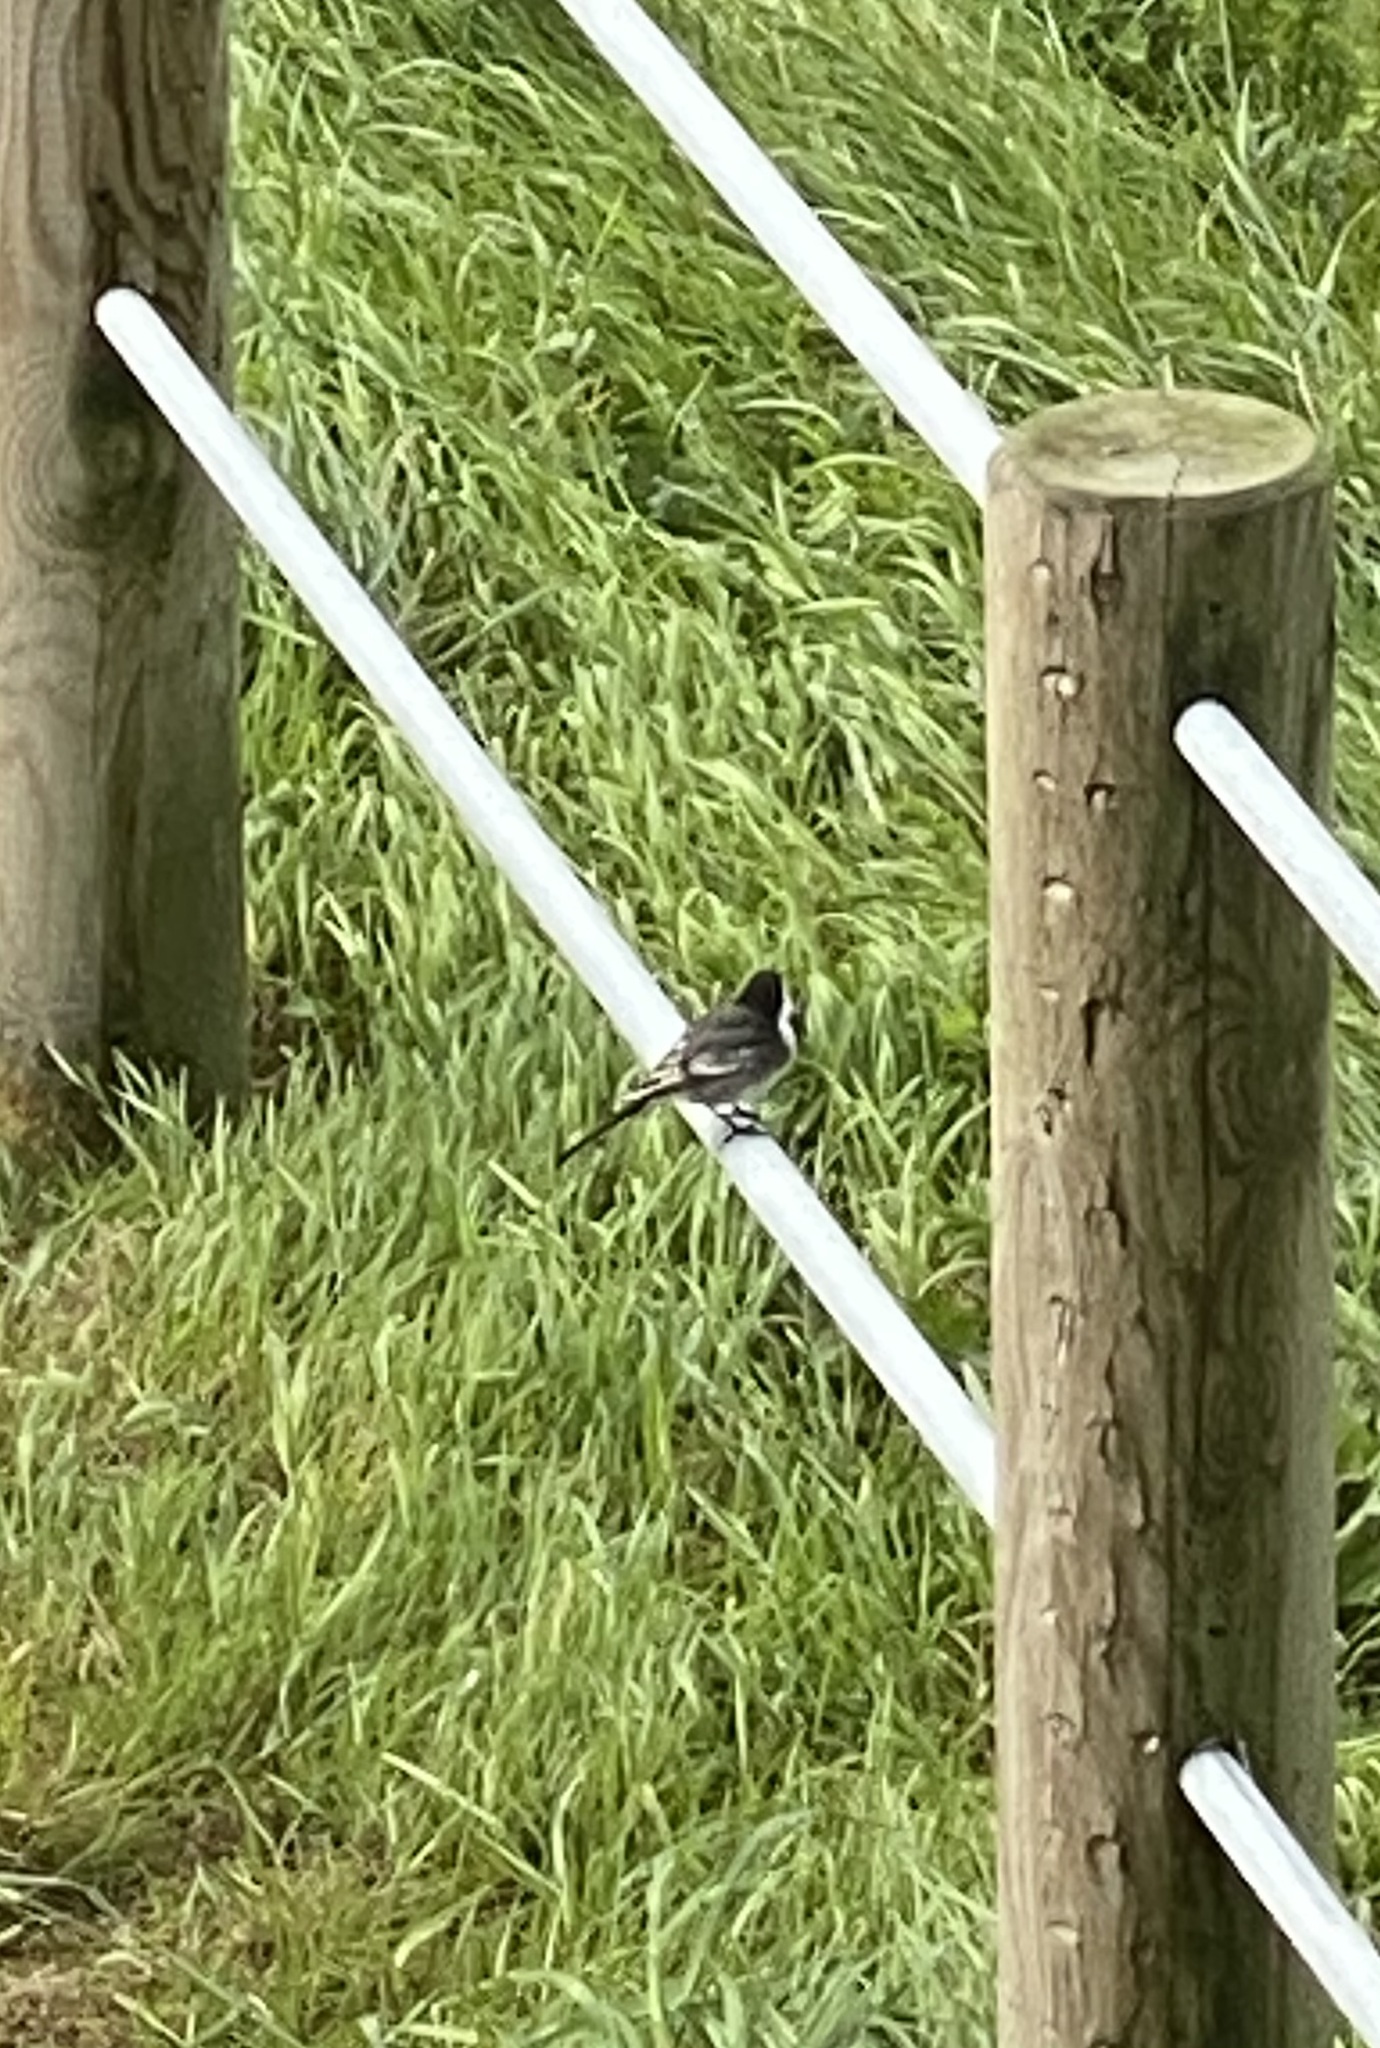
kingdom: Animalia
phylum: Chordata
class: Aves
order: Passeriformes
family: Motacillidae
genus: Motacilla
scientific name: Motacilla alba
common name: White wagtail
